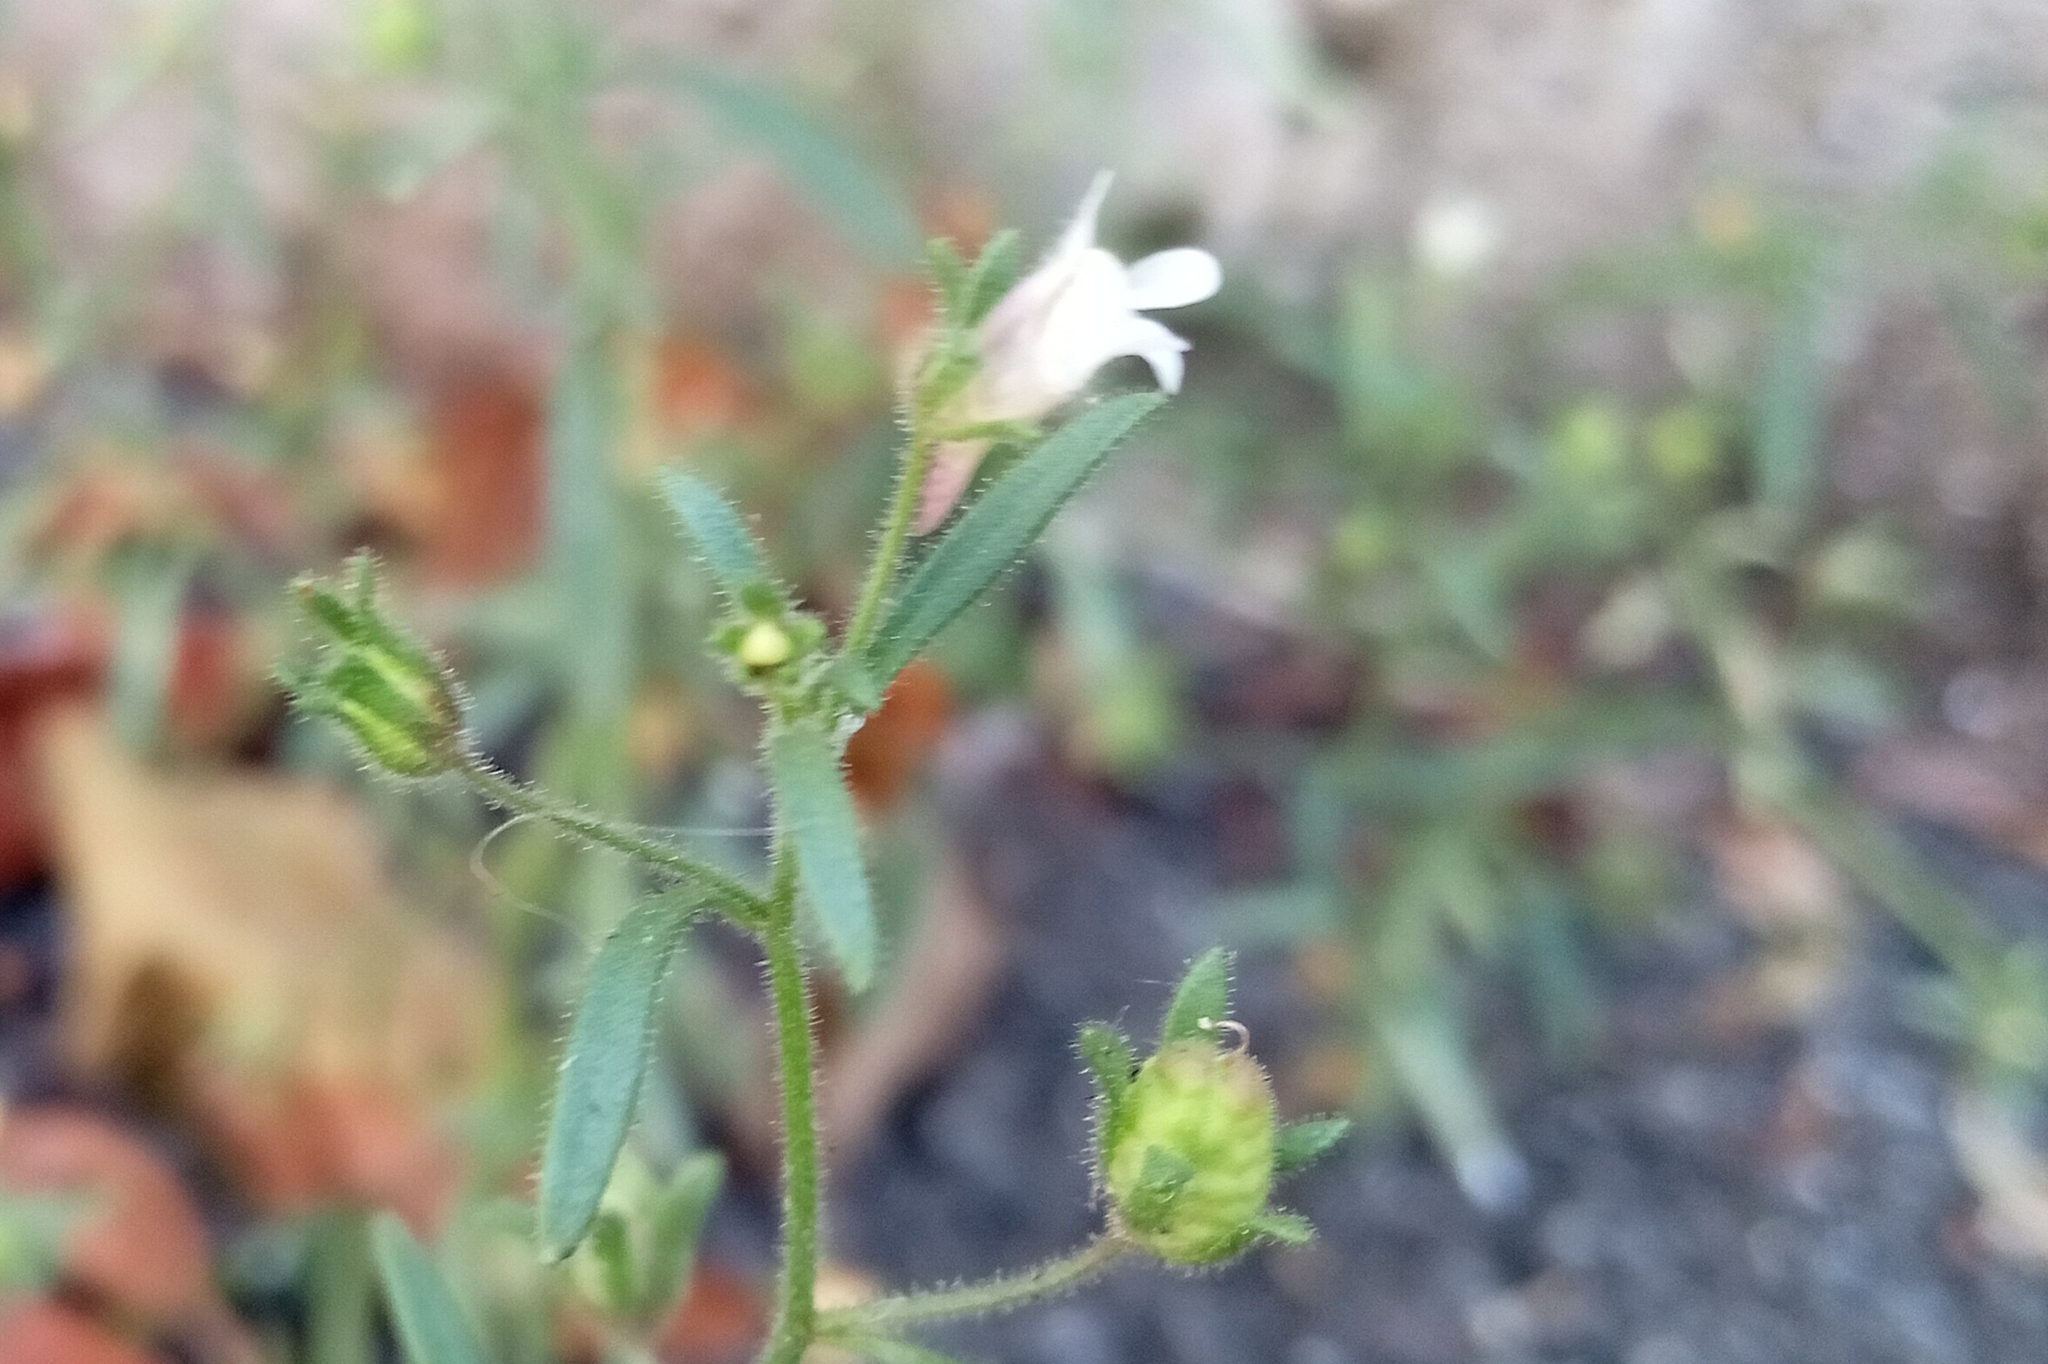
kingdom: Plantae
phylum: Tracheophyta
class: Magnoliopsida
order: Lamiales
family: Plantaginaceae
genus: Chaenorhinum
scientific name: Chaenorhinum minus
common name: Dwarf snapdragon
